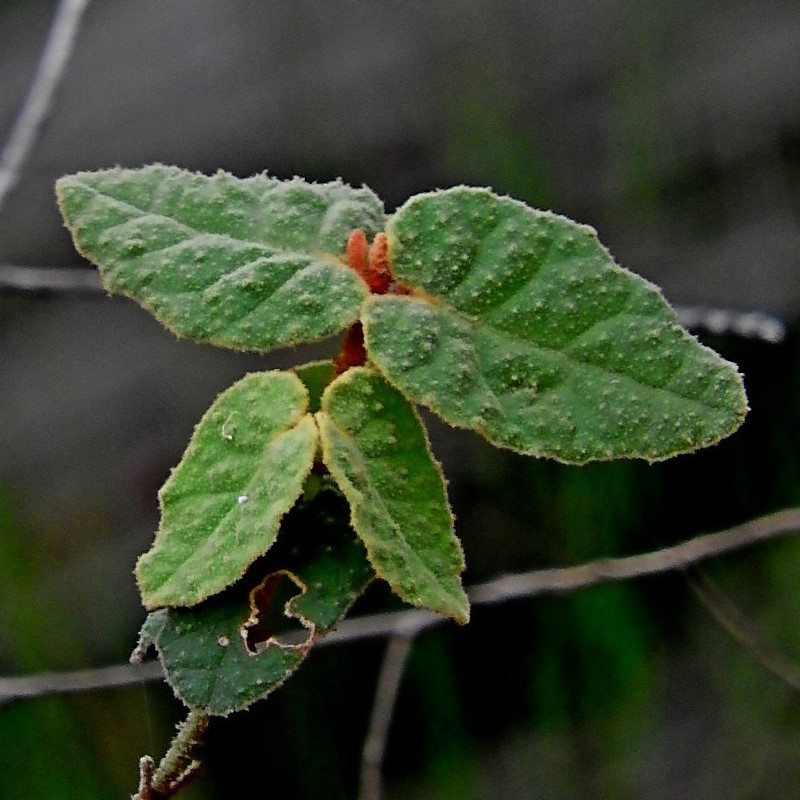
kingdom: Plantae
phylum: Tracheophyta
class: Magnoliopsida
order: Sapindales
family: Rutaceae
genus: Correa
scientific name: Correa reflexa
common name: Common correa
